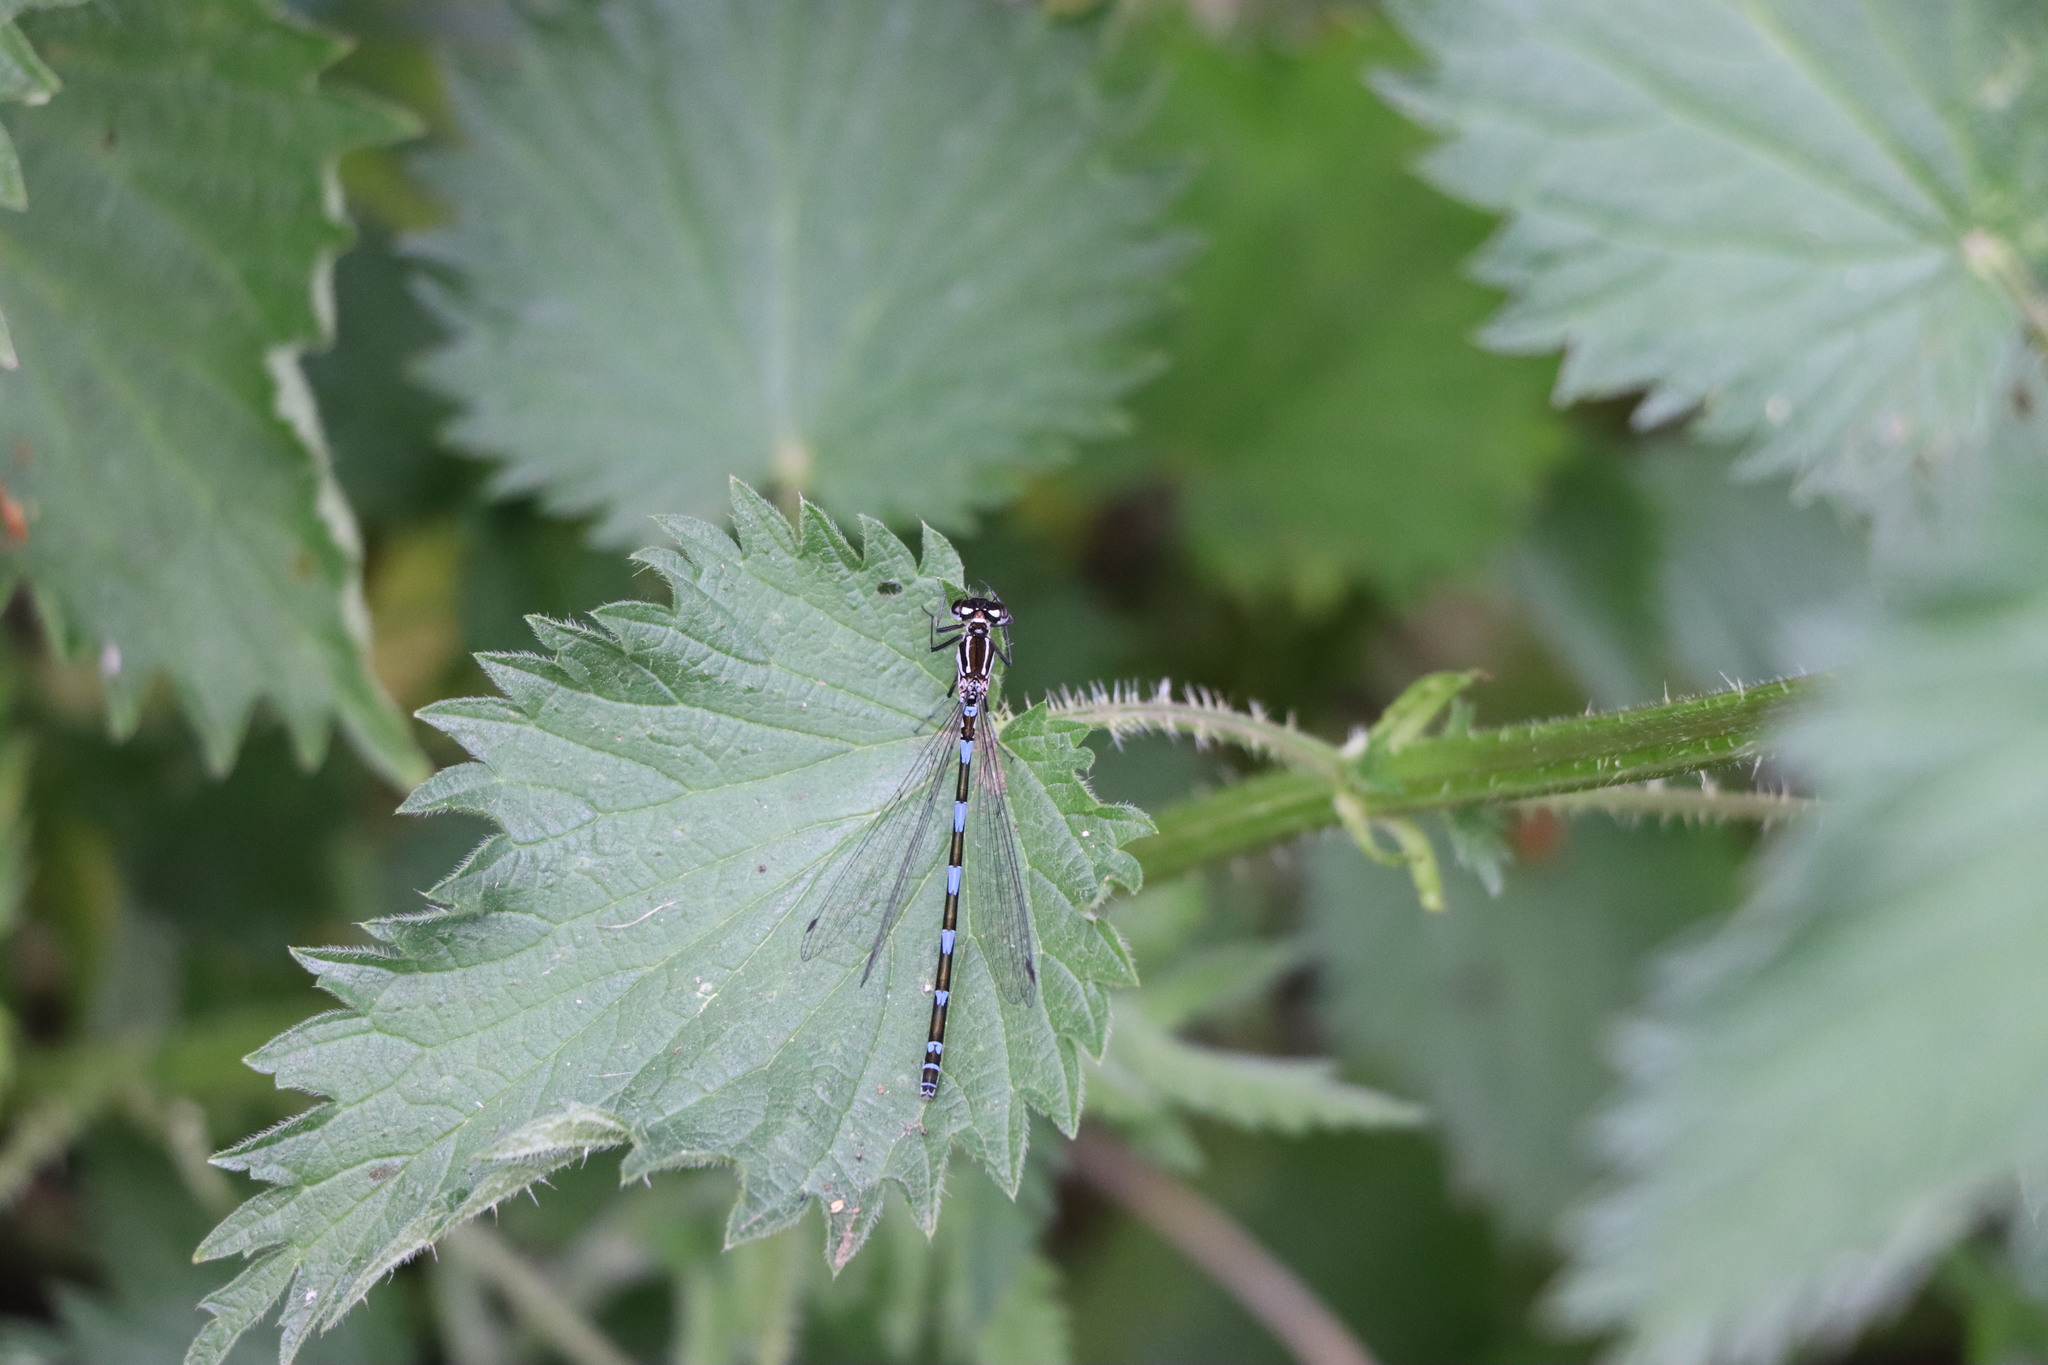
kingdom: Animalia
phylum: Arthropoda
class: Insecta
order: Odonata
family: Coenagrionidae
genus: Coenagrion
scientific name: Coenagrion pulchellum
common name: Variable bluet
